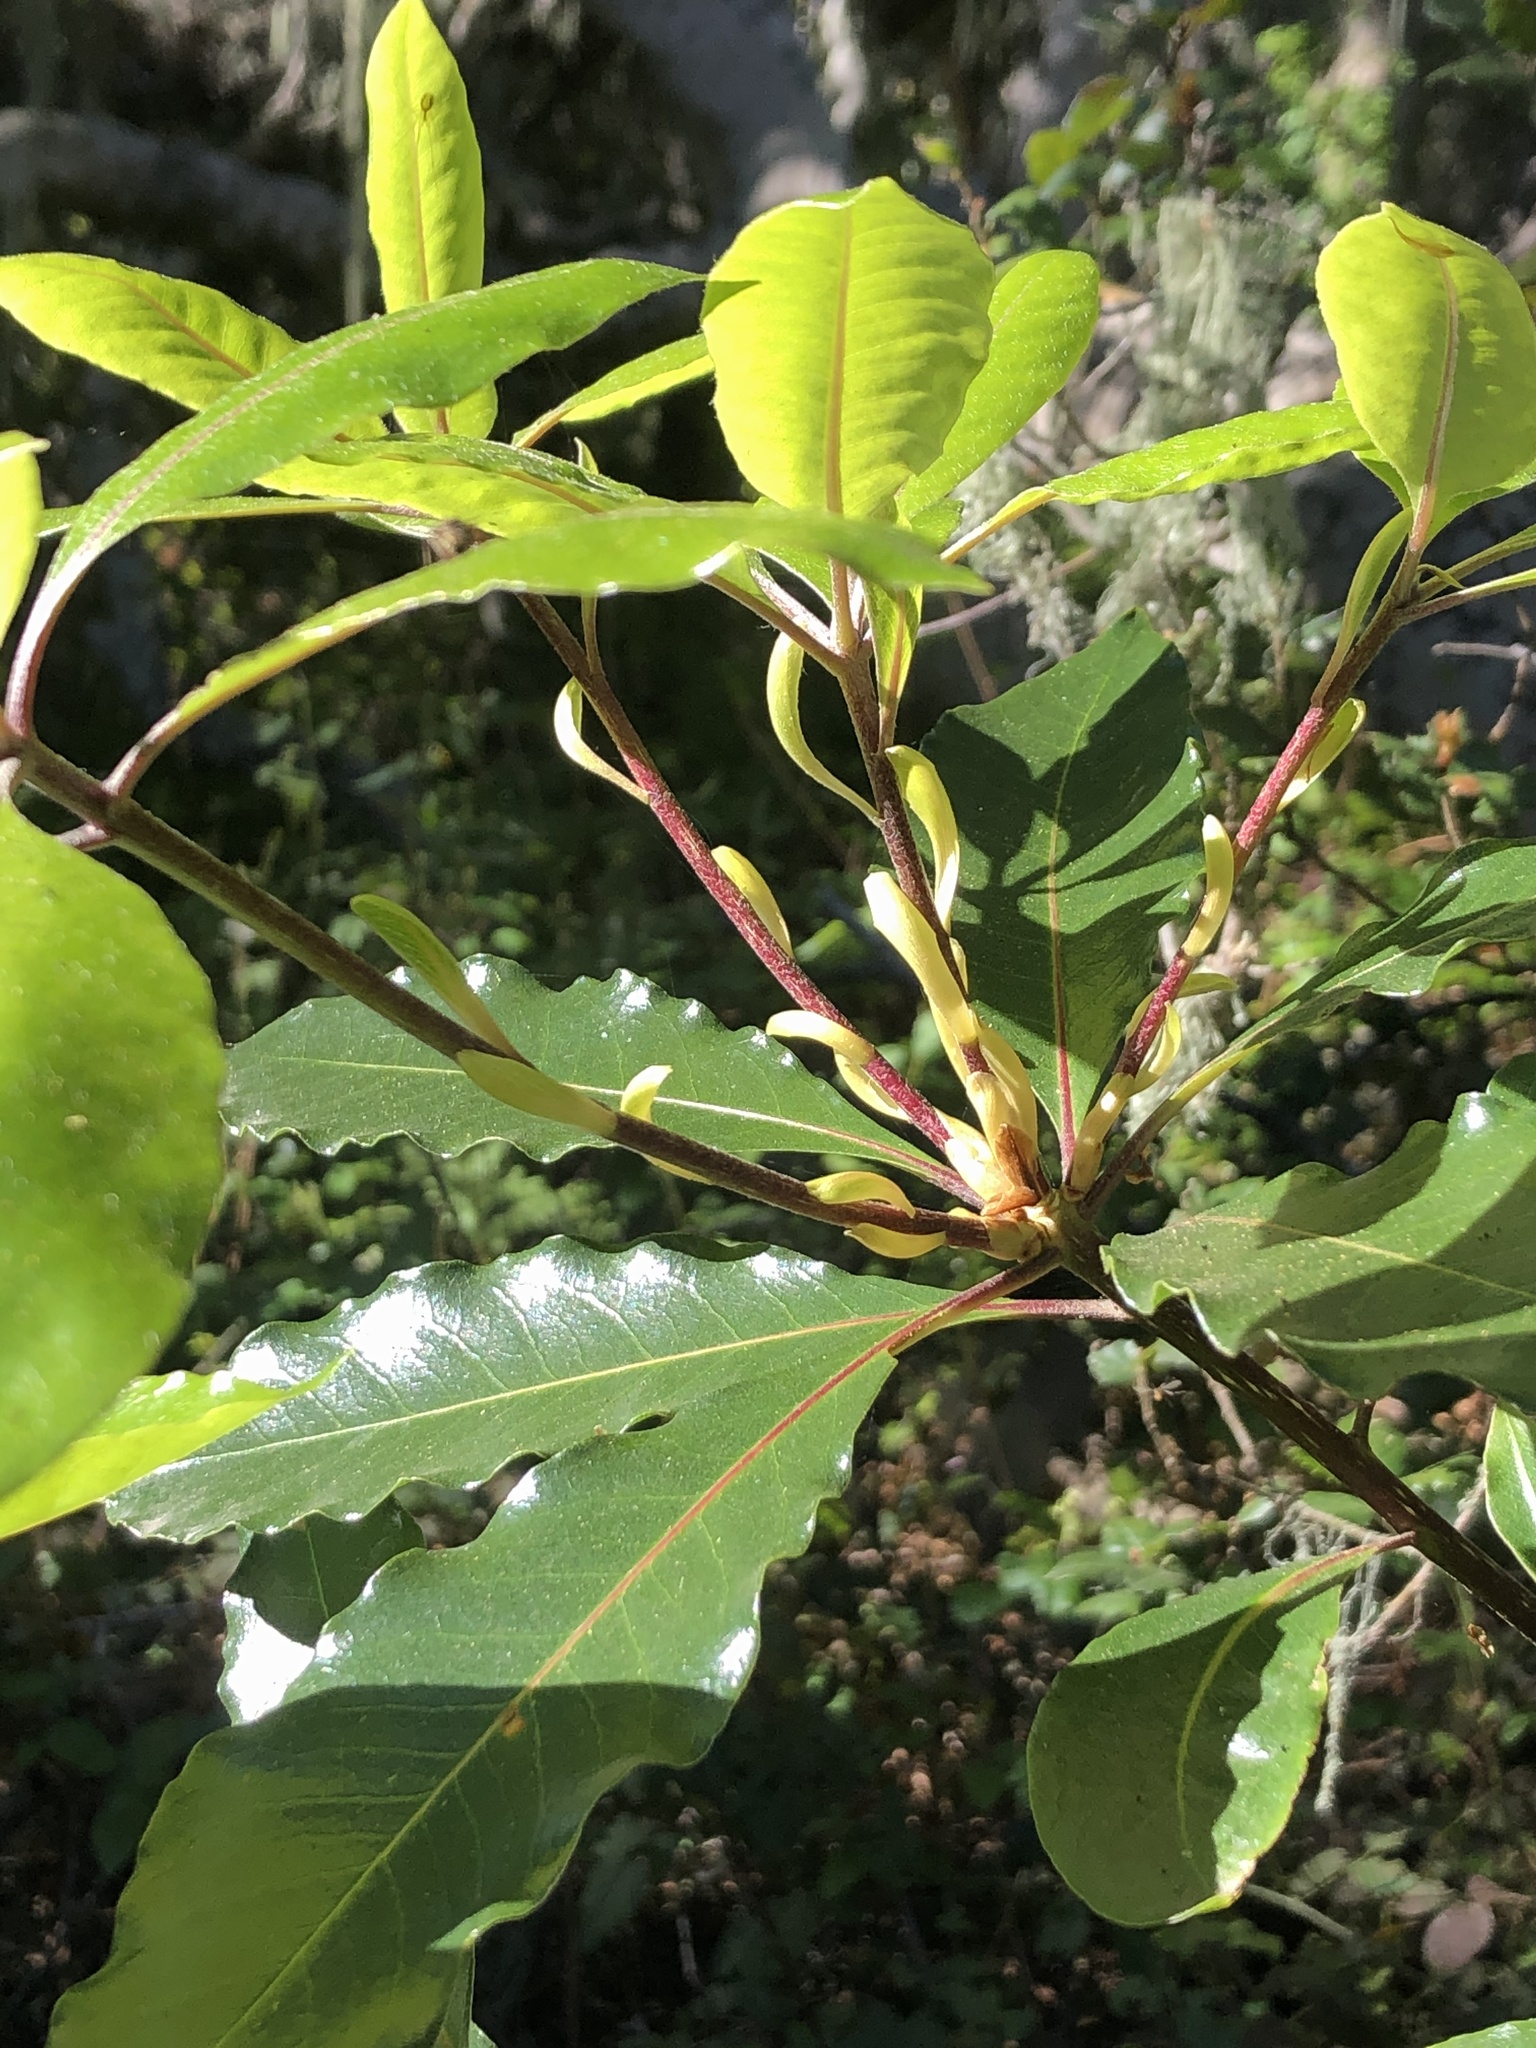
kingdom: Plantae
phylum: Tracheophyta
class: Magnoliopsida
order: Apiales
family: Pittosporaceae
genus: Pittosporum
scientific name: Pittosporum undulatum
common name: Australian cheesewood
